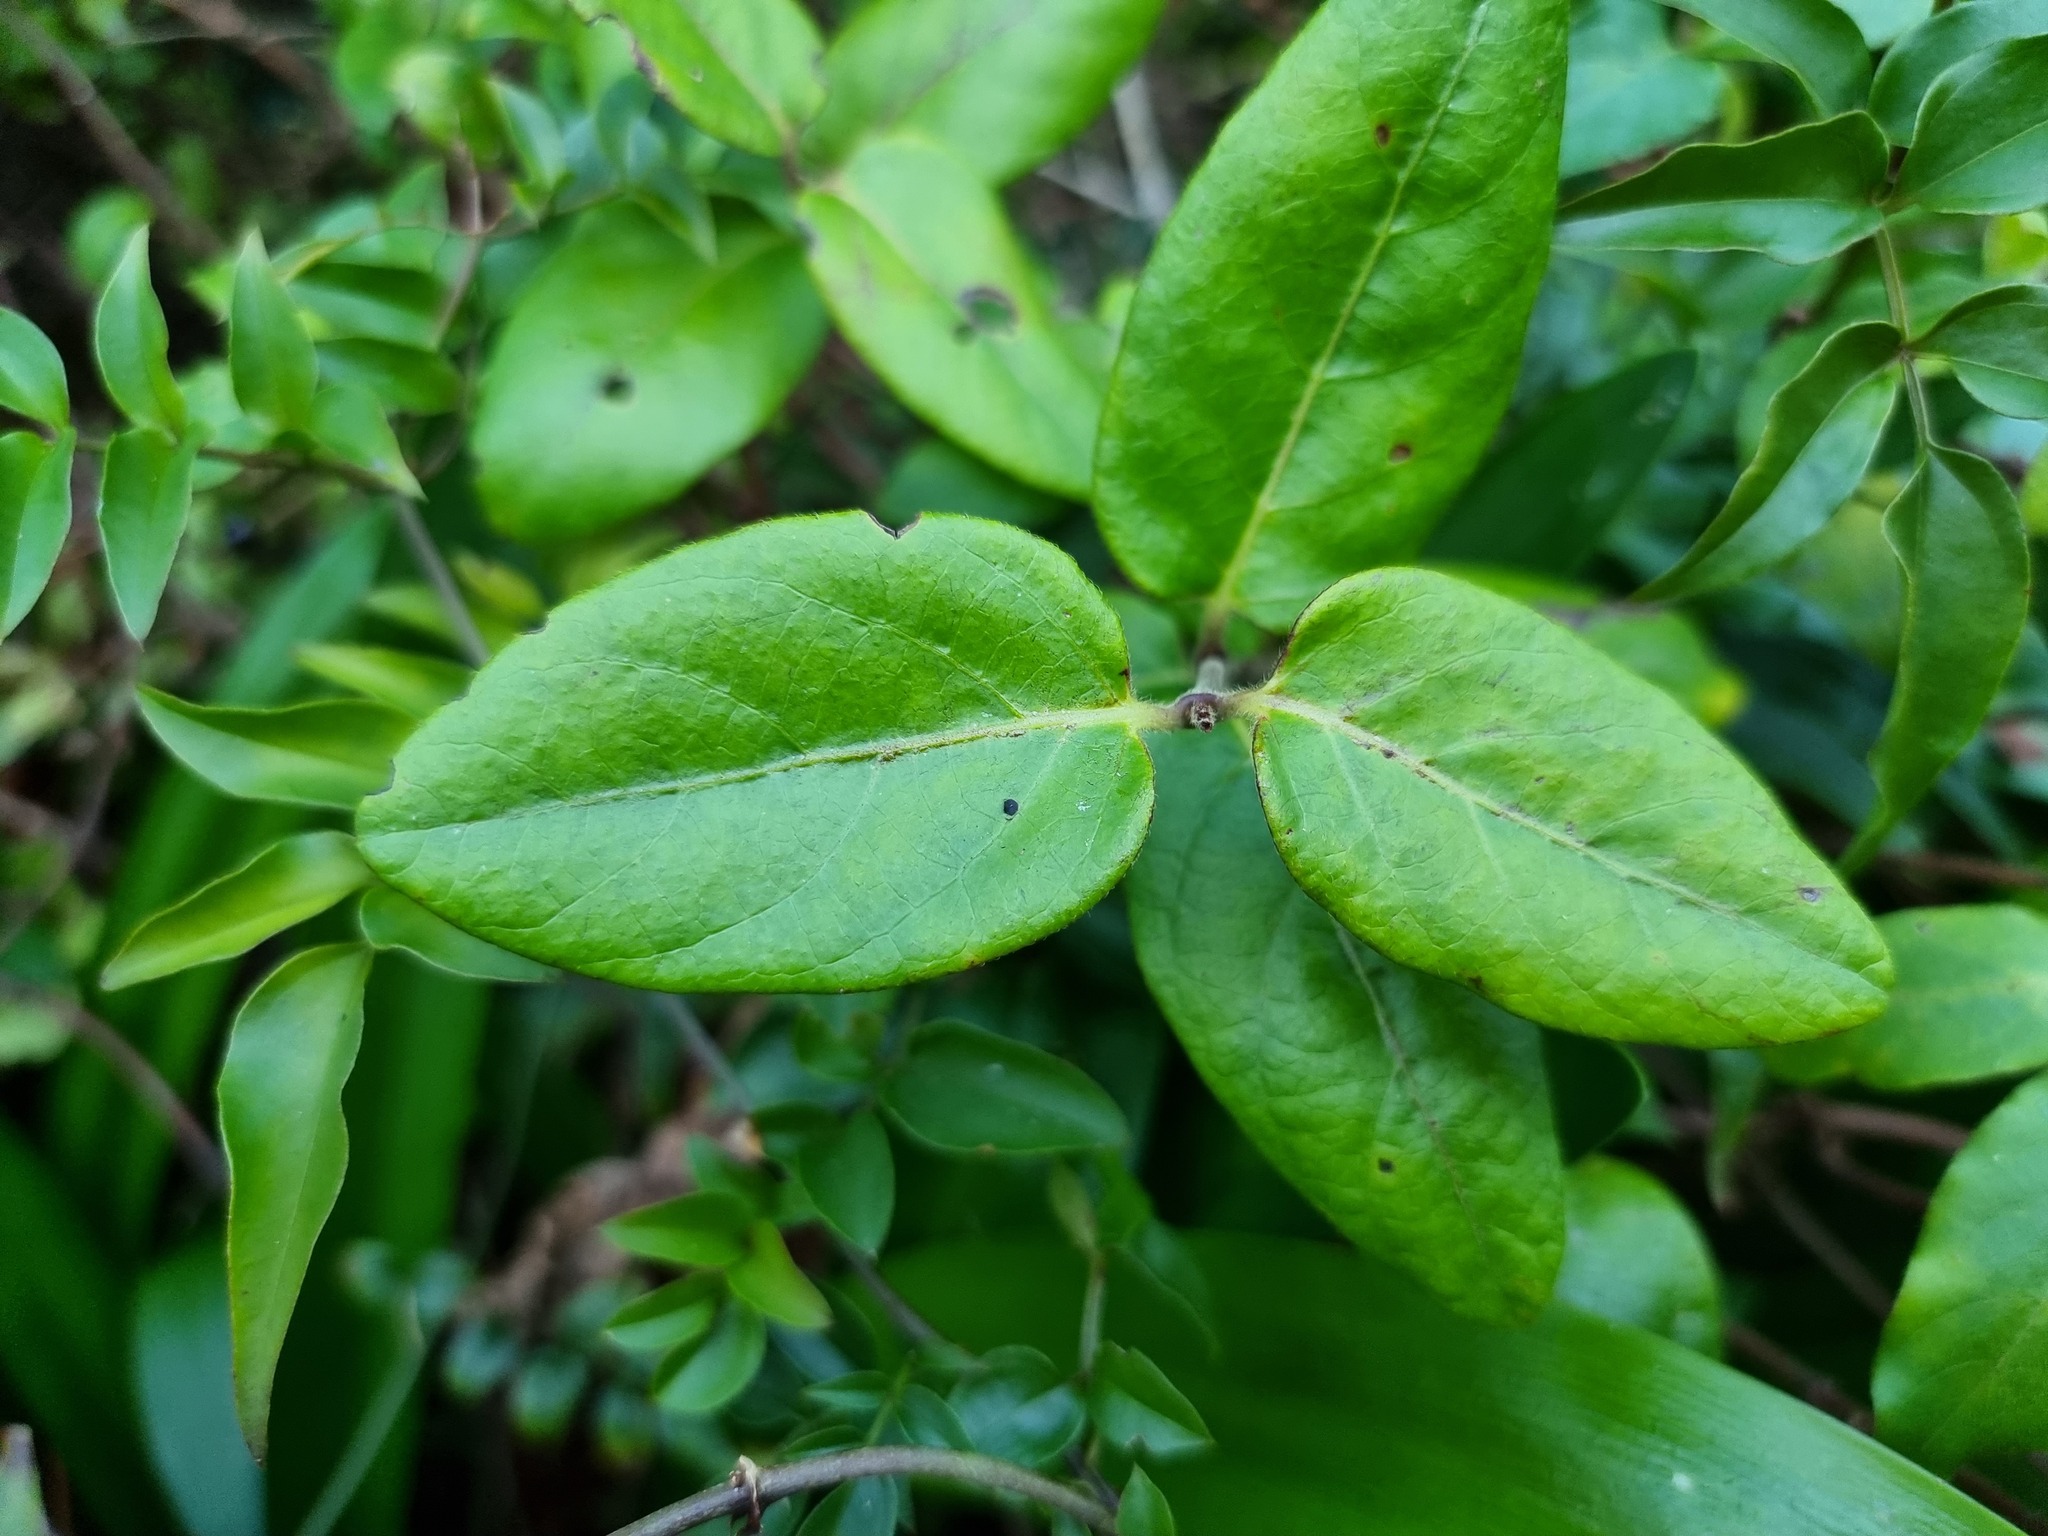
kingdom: Plantae
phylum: Tracheophyta
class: Magnoliopsida
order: Dipsacales
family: Caprifoliaceae
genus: Lonicera
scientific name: Lonicera japonica
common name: Japanese honeysuckle
